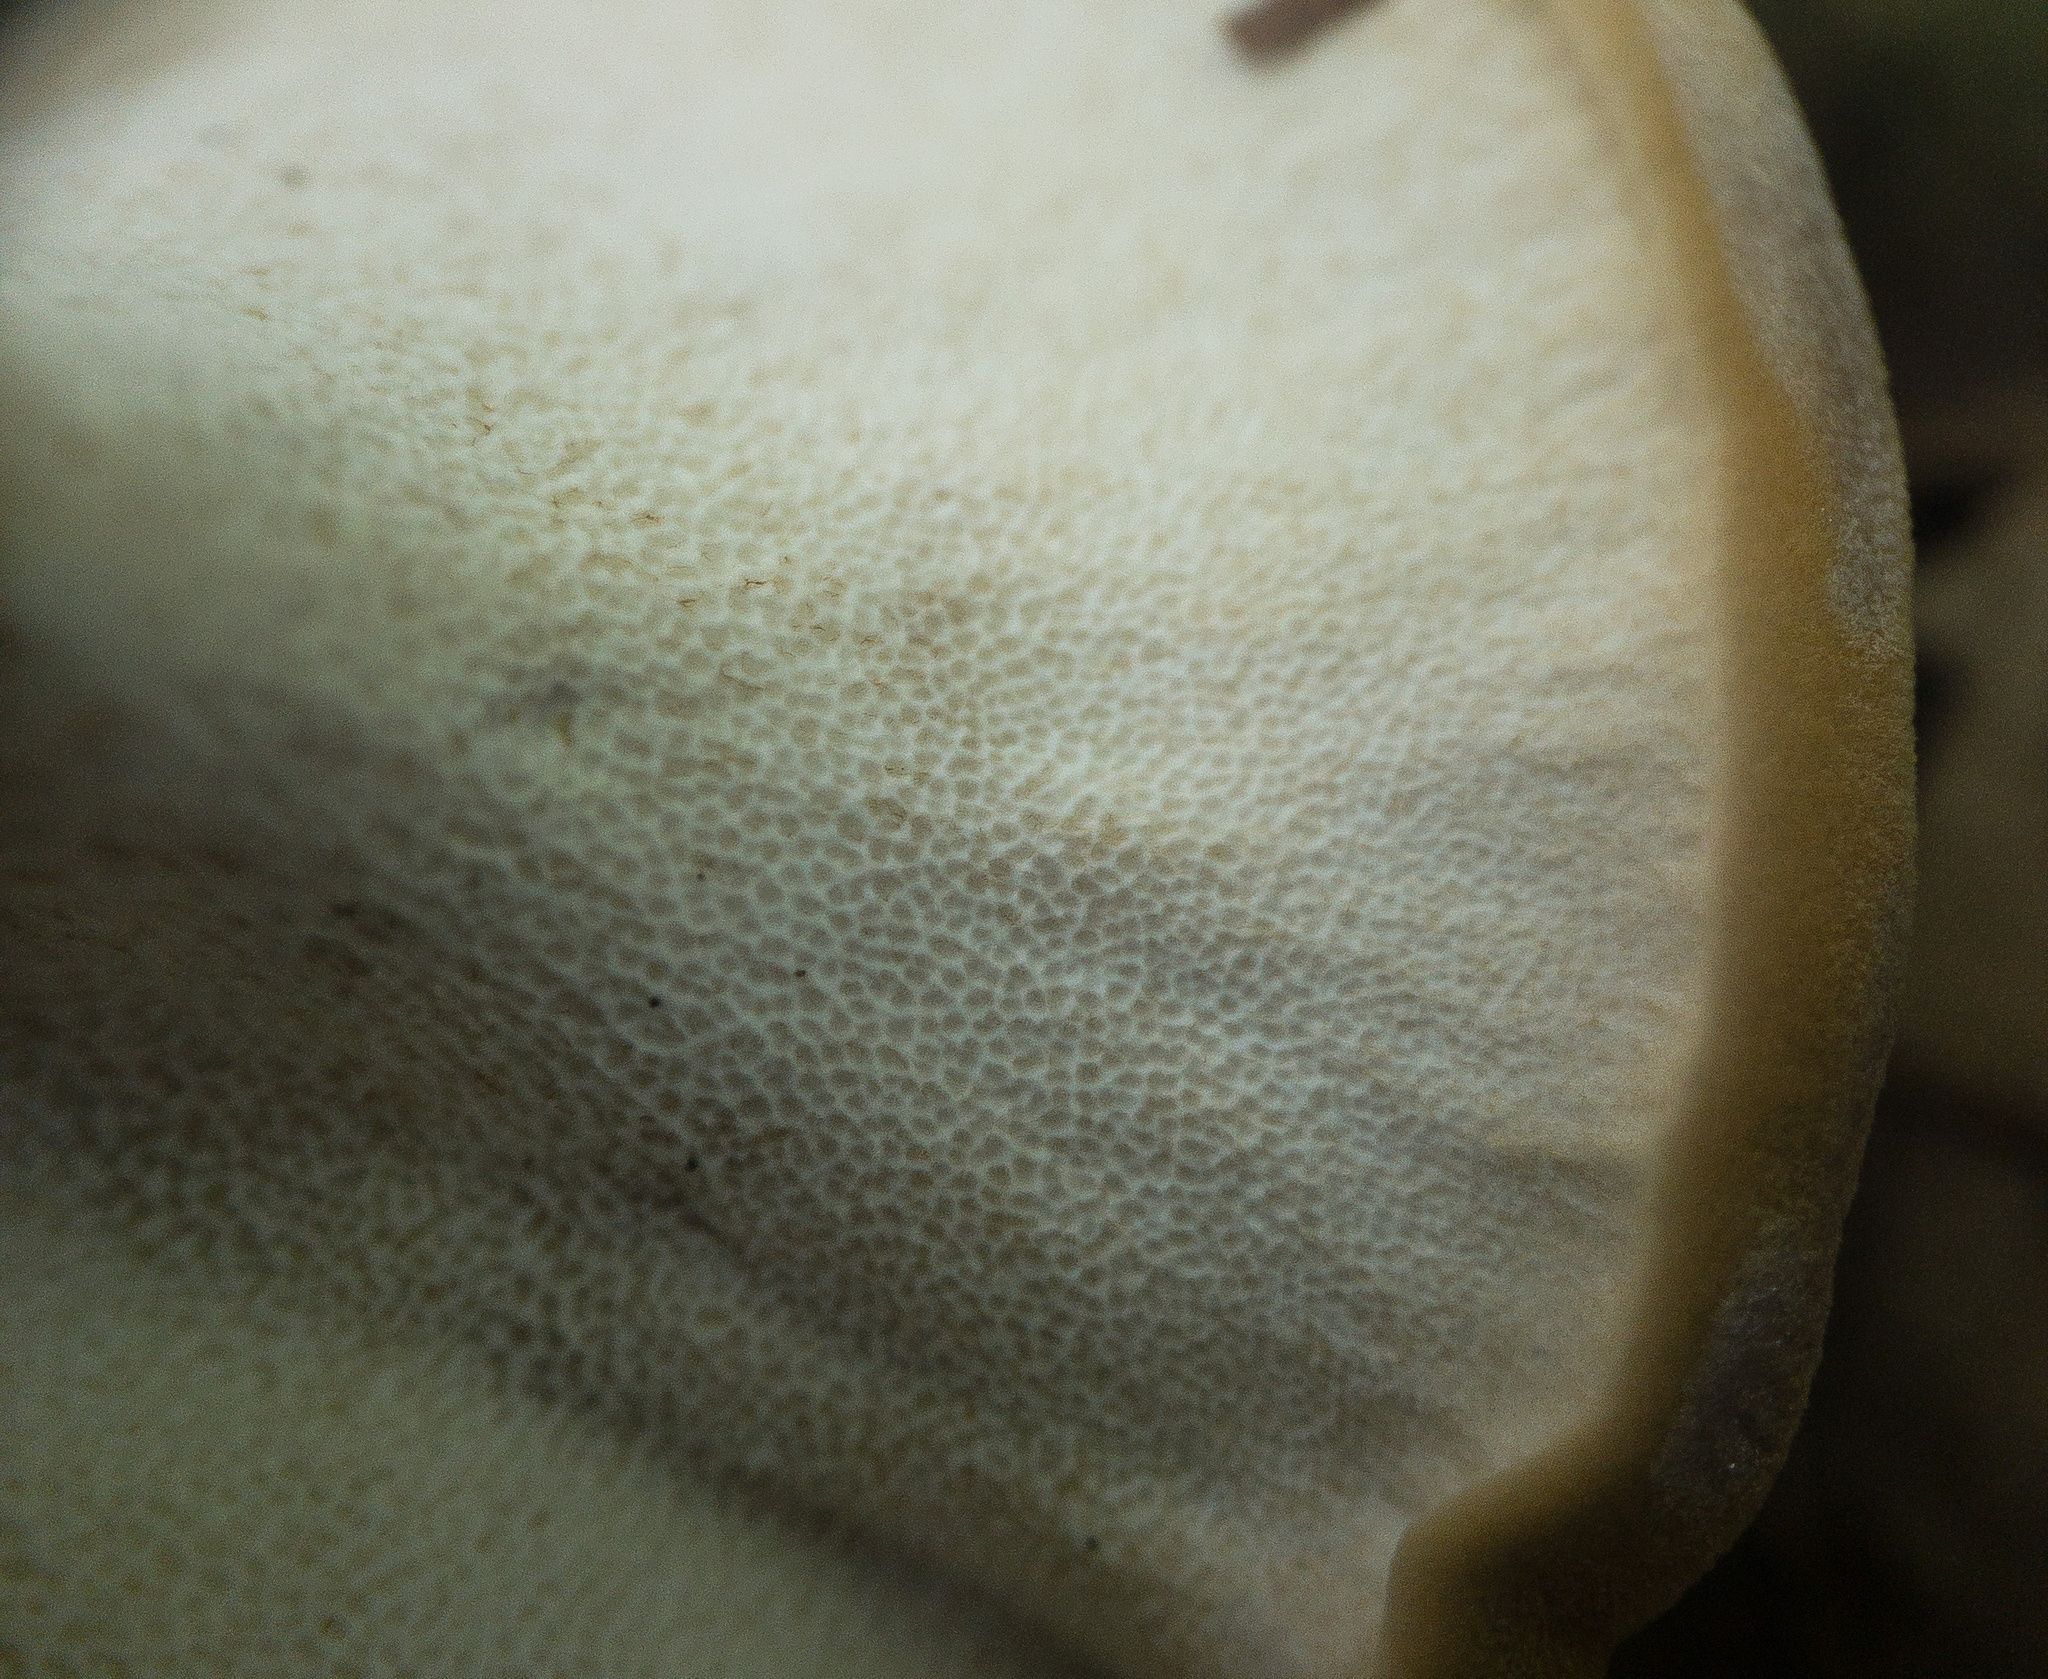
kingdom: Fungi
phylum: Basidiomycota
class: Agaricomycetes
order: Russulales
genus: Laeticutis
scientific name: Laeticutis cristata
